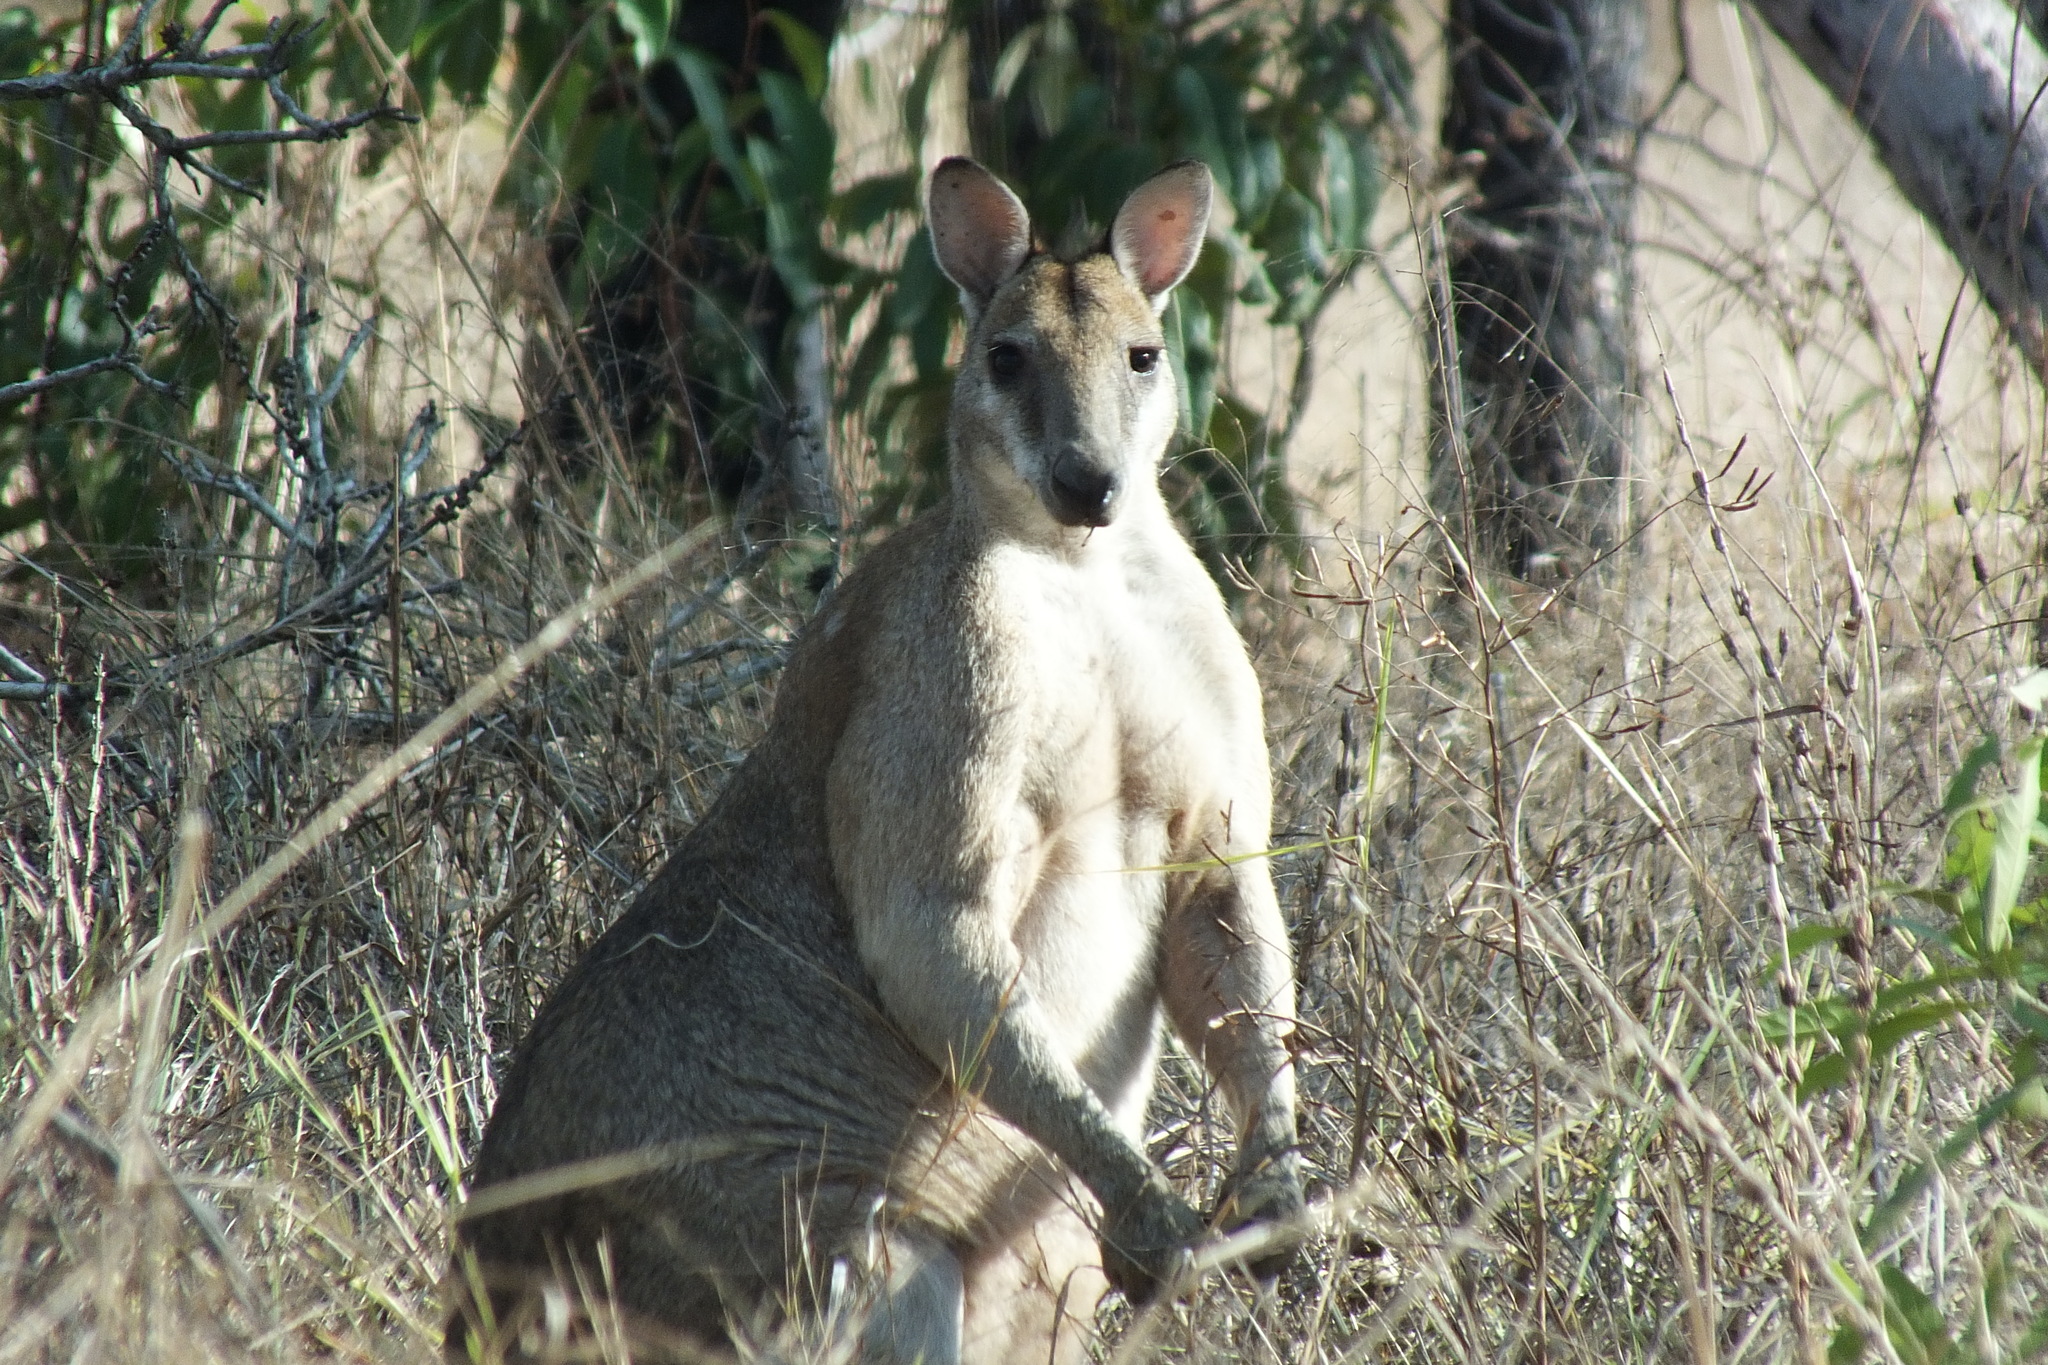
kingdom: Animalia
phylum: Chordata
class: Mammalia
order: Diprotodontia
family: Macropodidae
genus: Macropus
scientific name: Macropus agilis
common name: Agile wallaby
